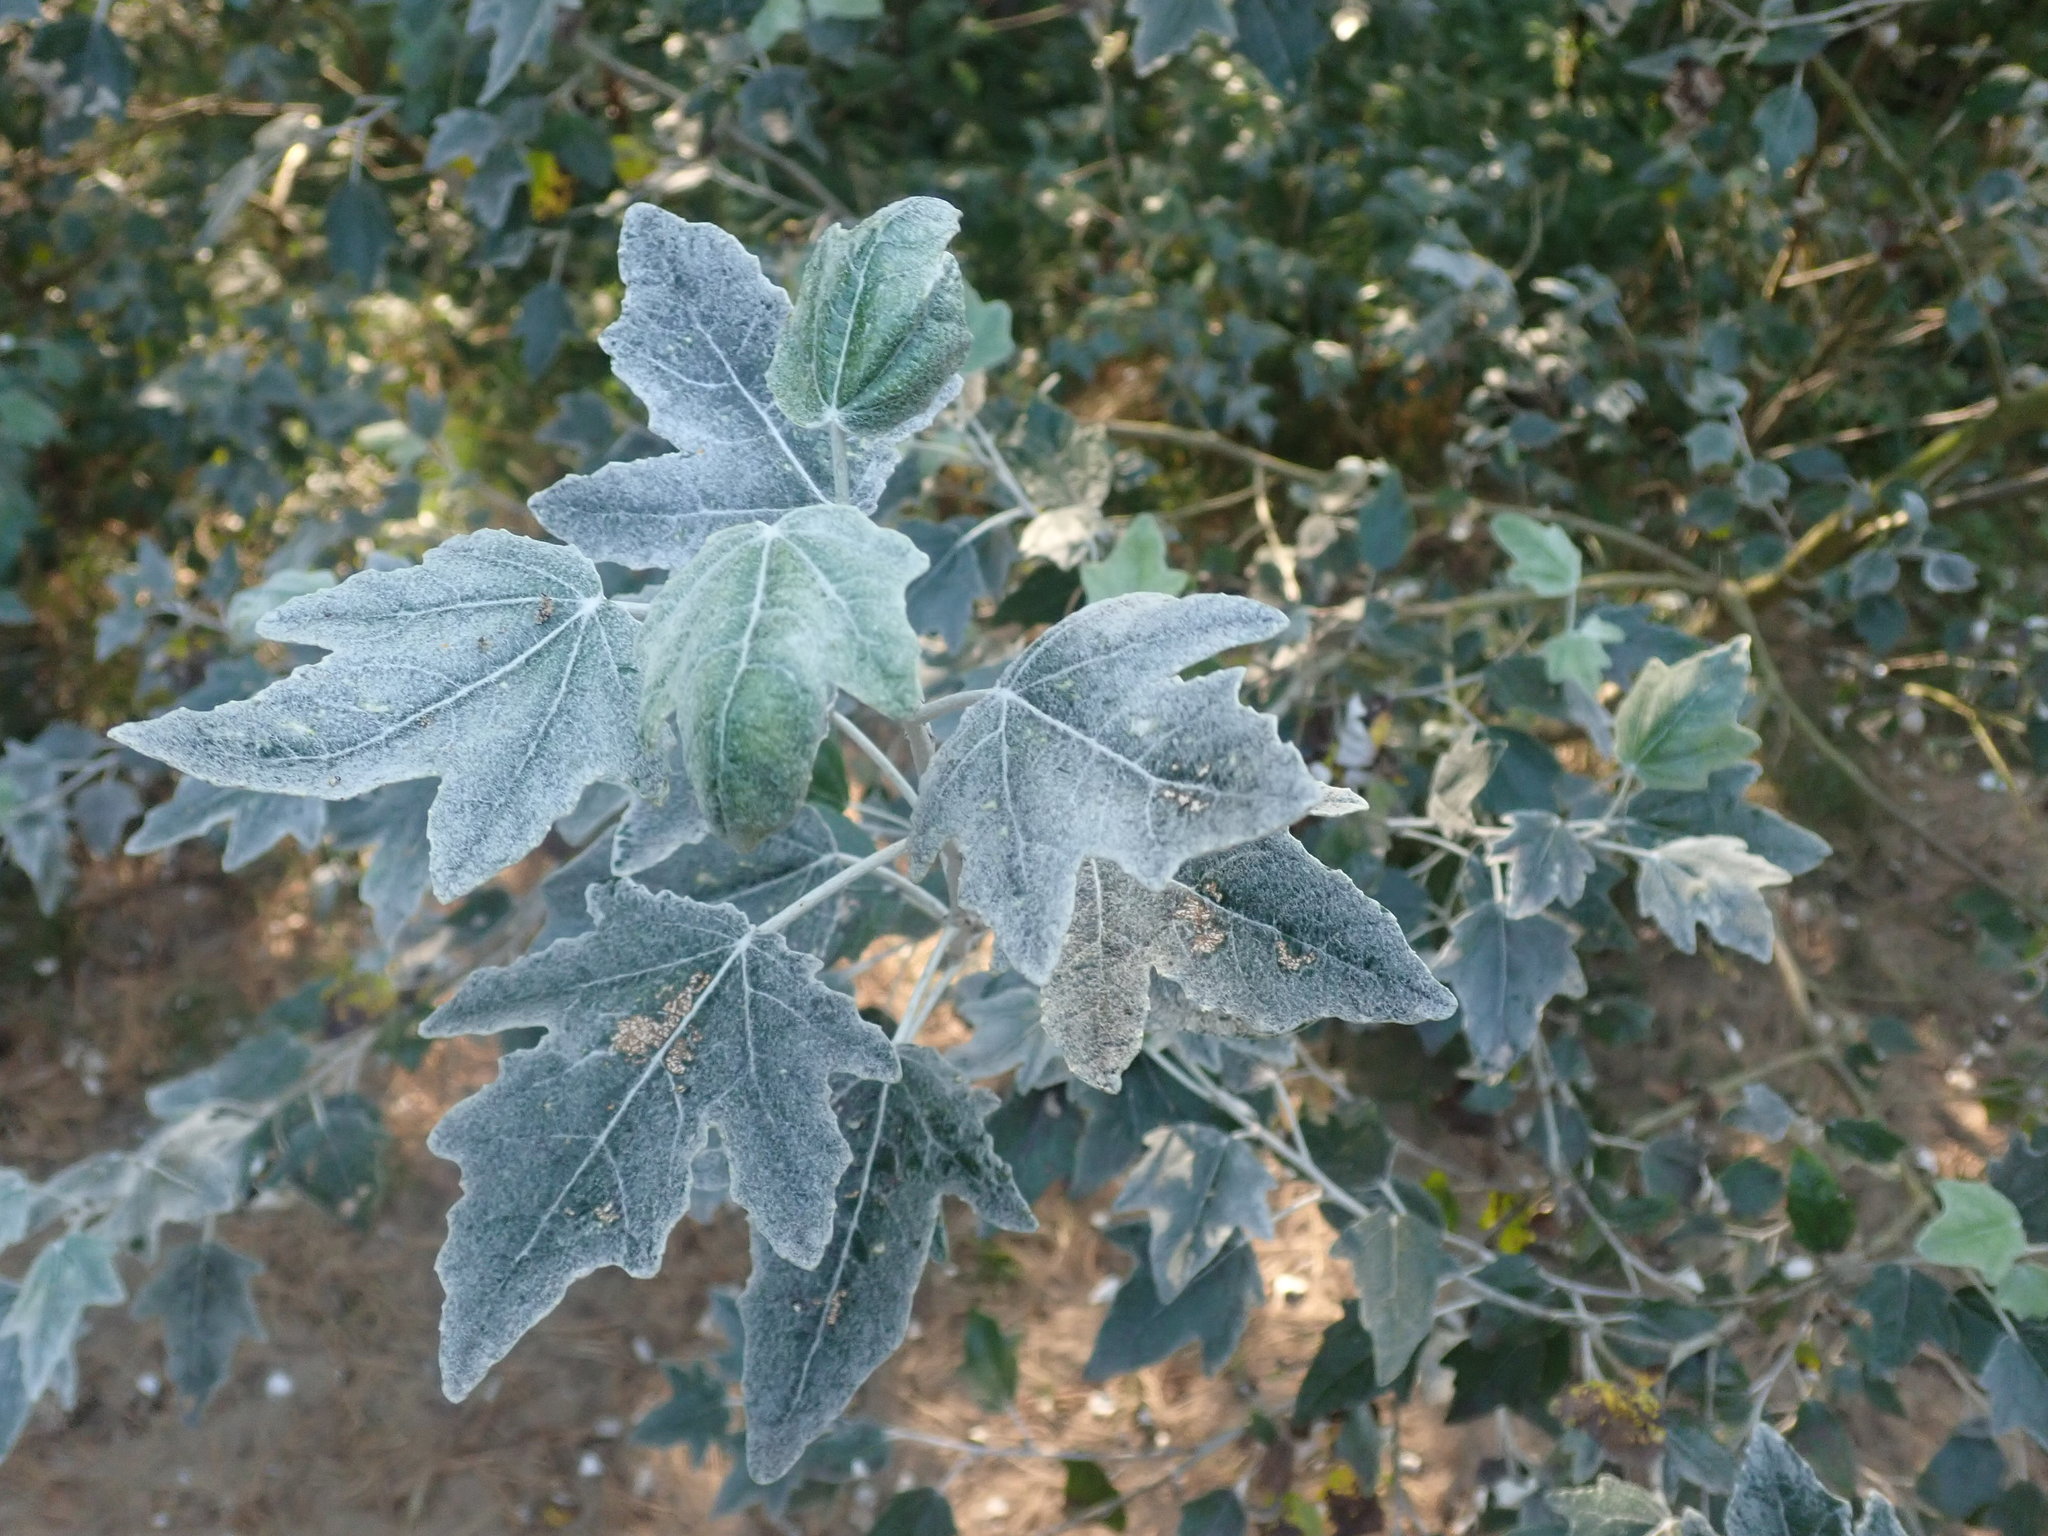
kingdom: Plantae
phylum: Tracheophyta
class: Magnoliopsida
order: Malpighiales
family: Salicaceae
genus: Populus
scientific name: Populus alba
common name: White poplar
